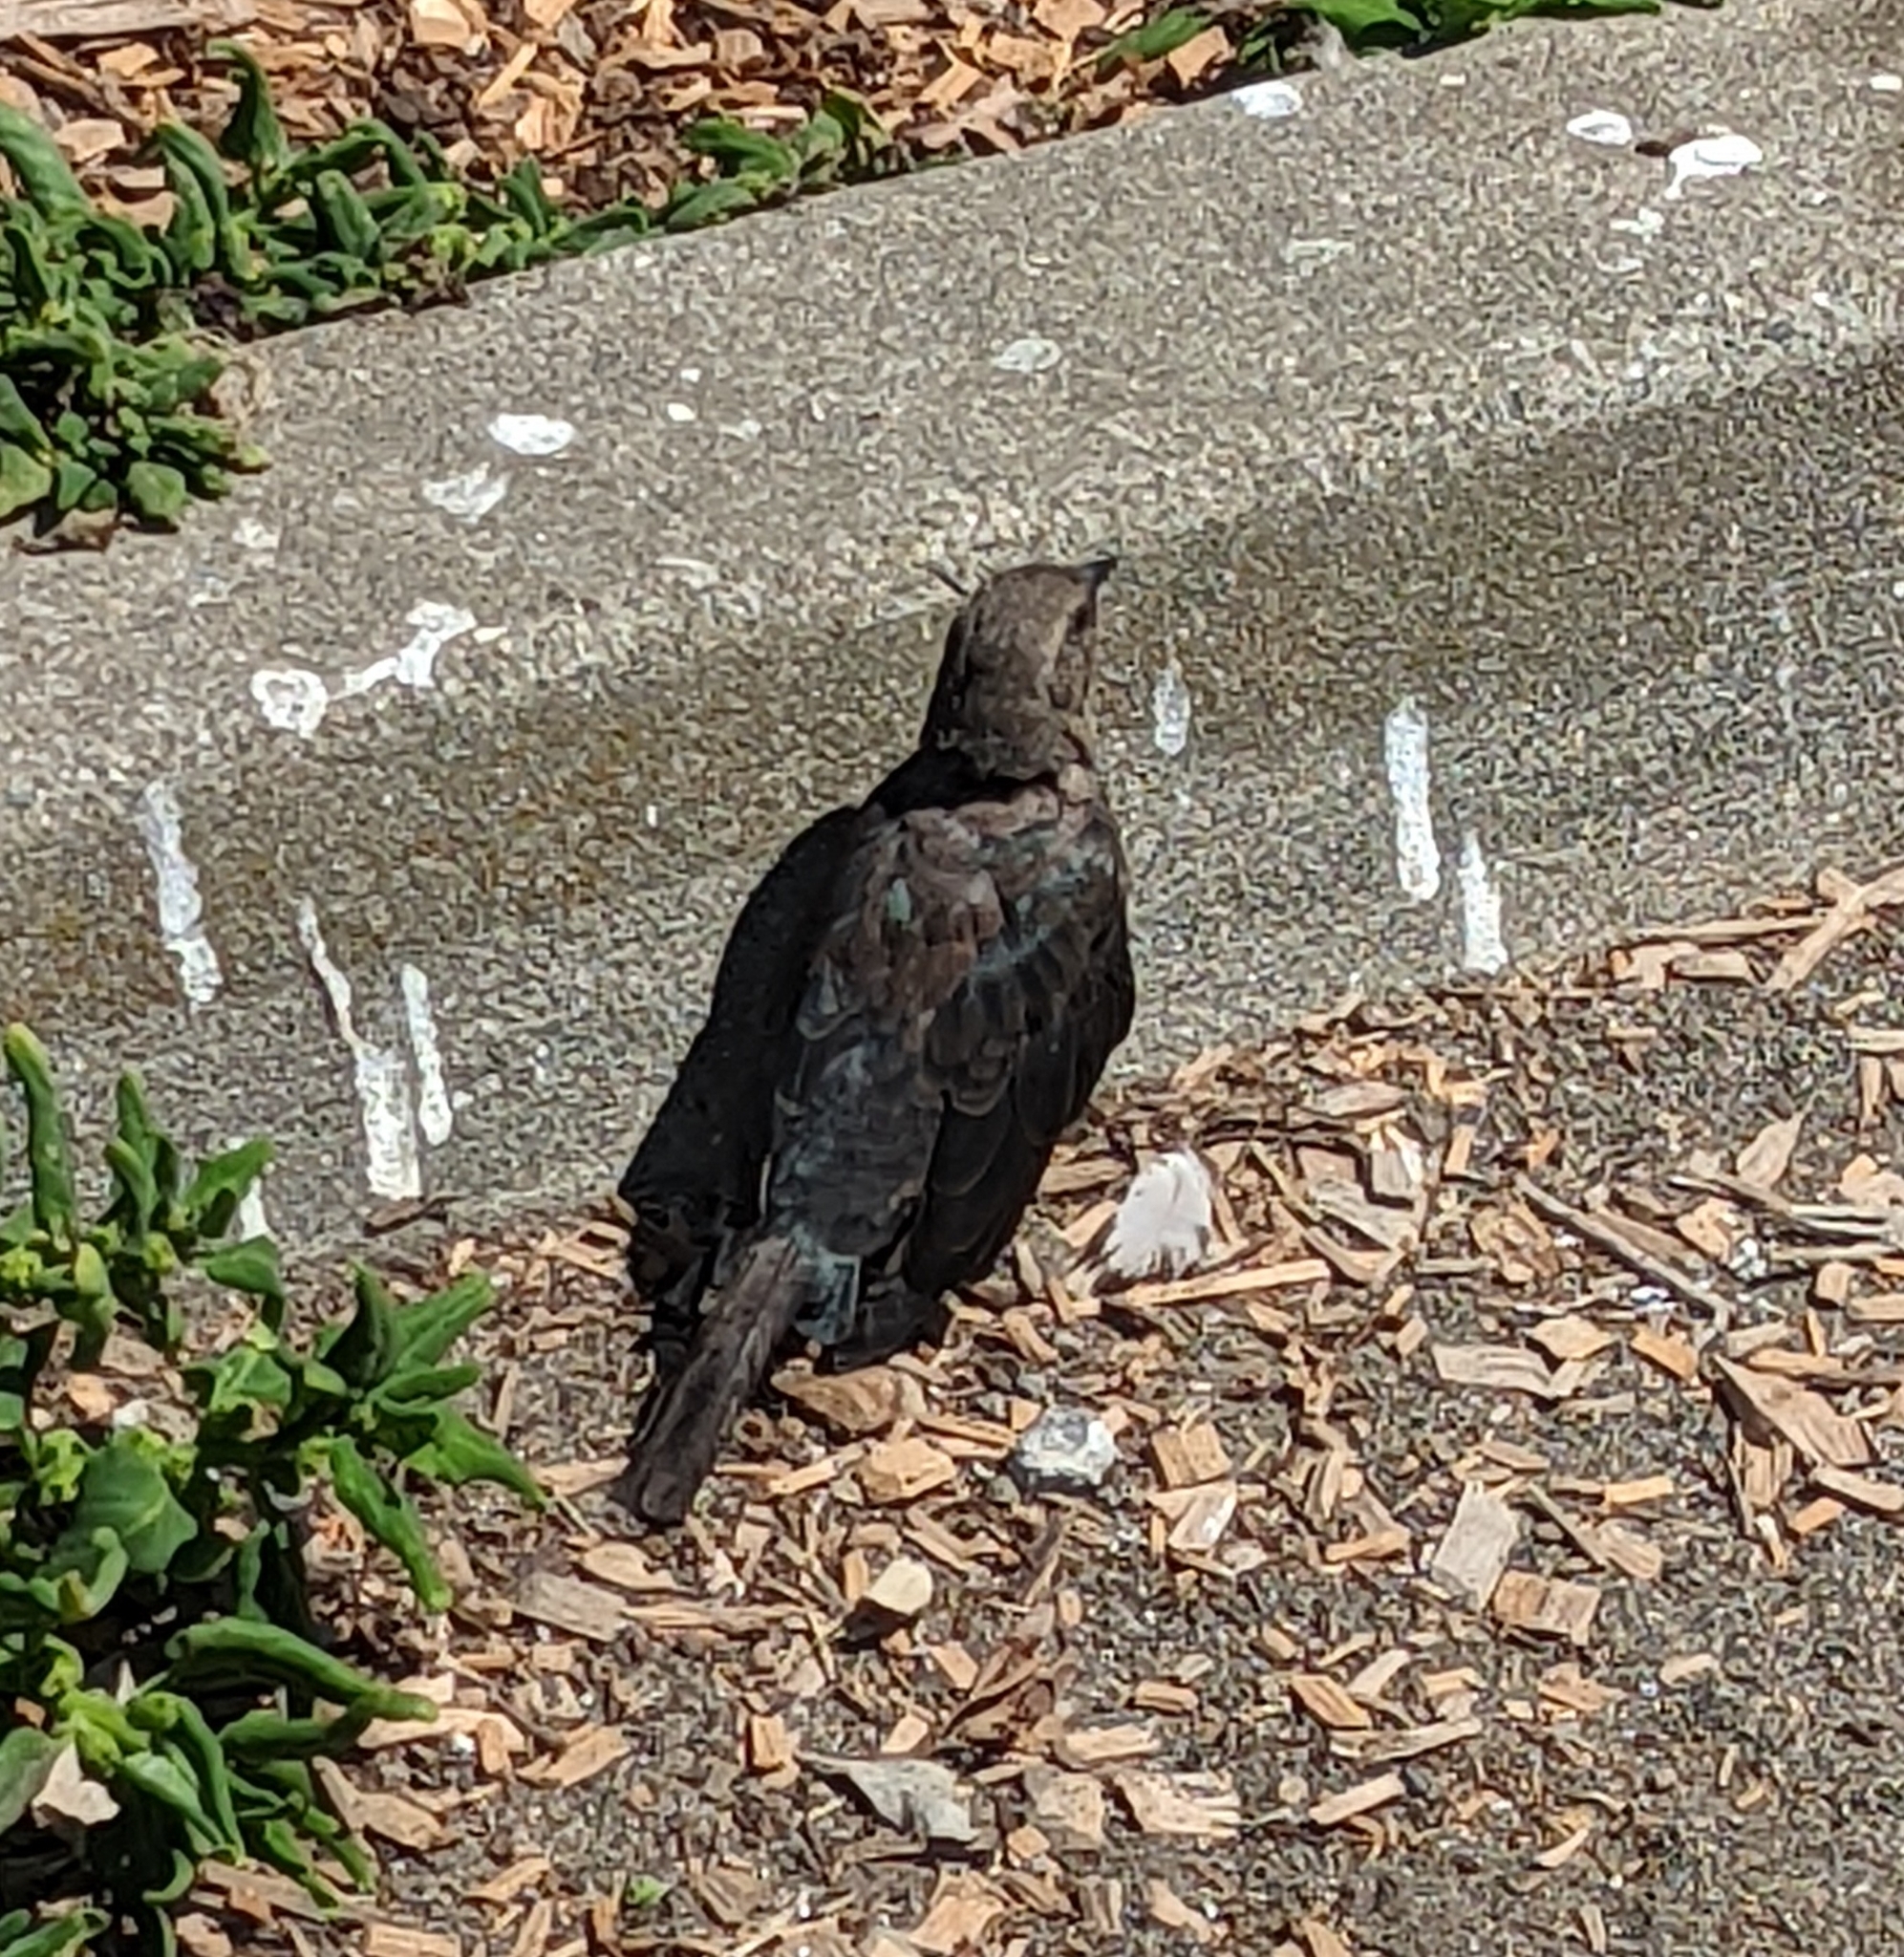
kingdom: Animalia
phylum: Chordata
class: Aves
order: Passeriformes
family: Icteridae
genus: Euphagus
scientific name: Euphagus cyanocephalus
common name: Brewer's blackbird
